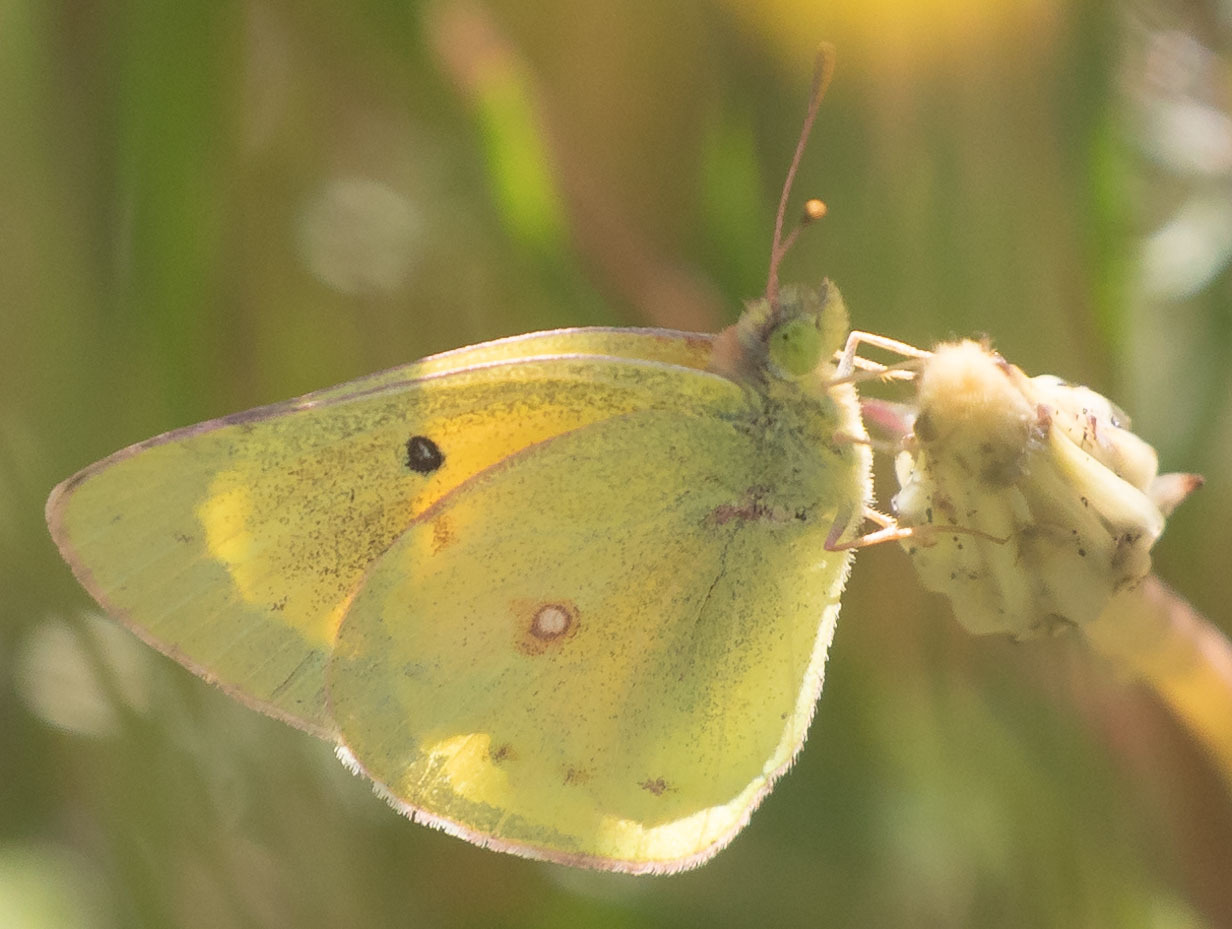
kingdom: Animalia
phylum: Arthropoda
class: Insecta
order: Lepidoptera
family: Pieridae
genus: Colias
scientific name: Colias eurytheme
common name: Alfalfa butterfly
